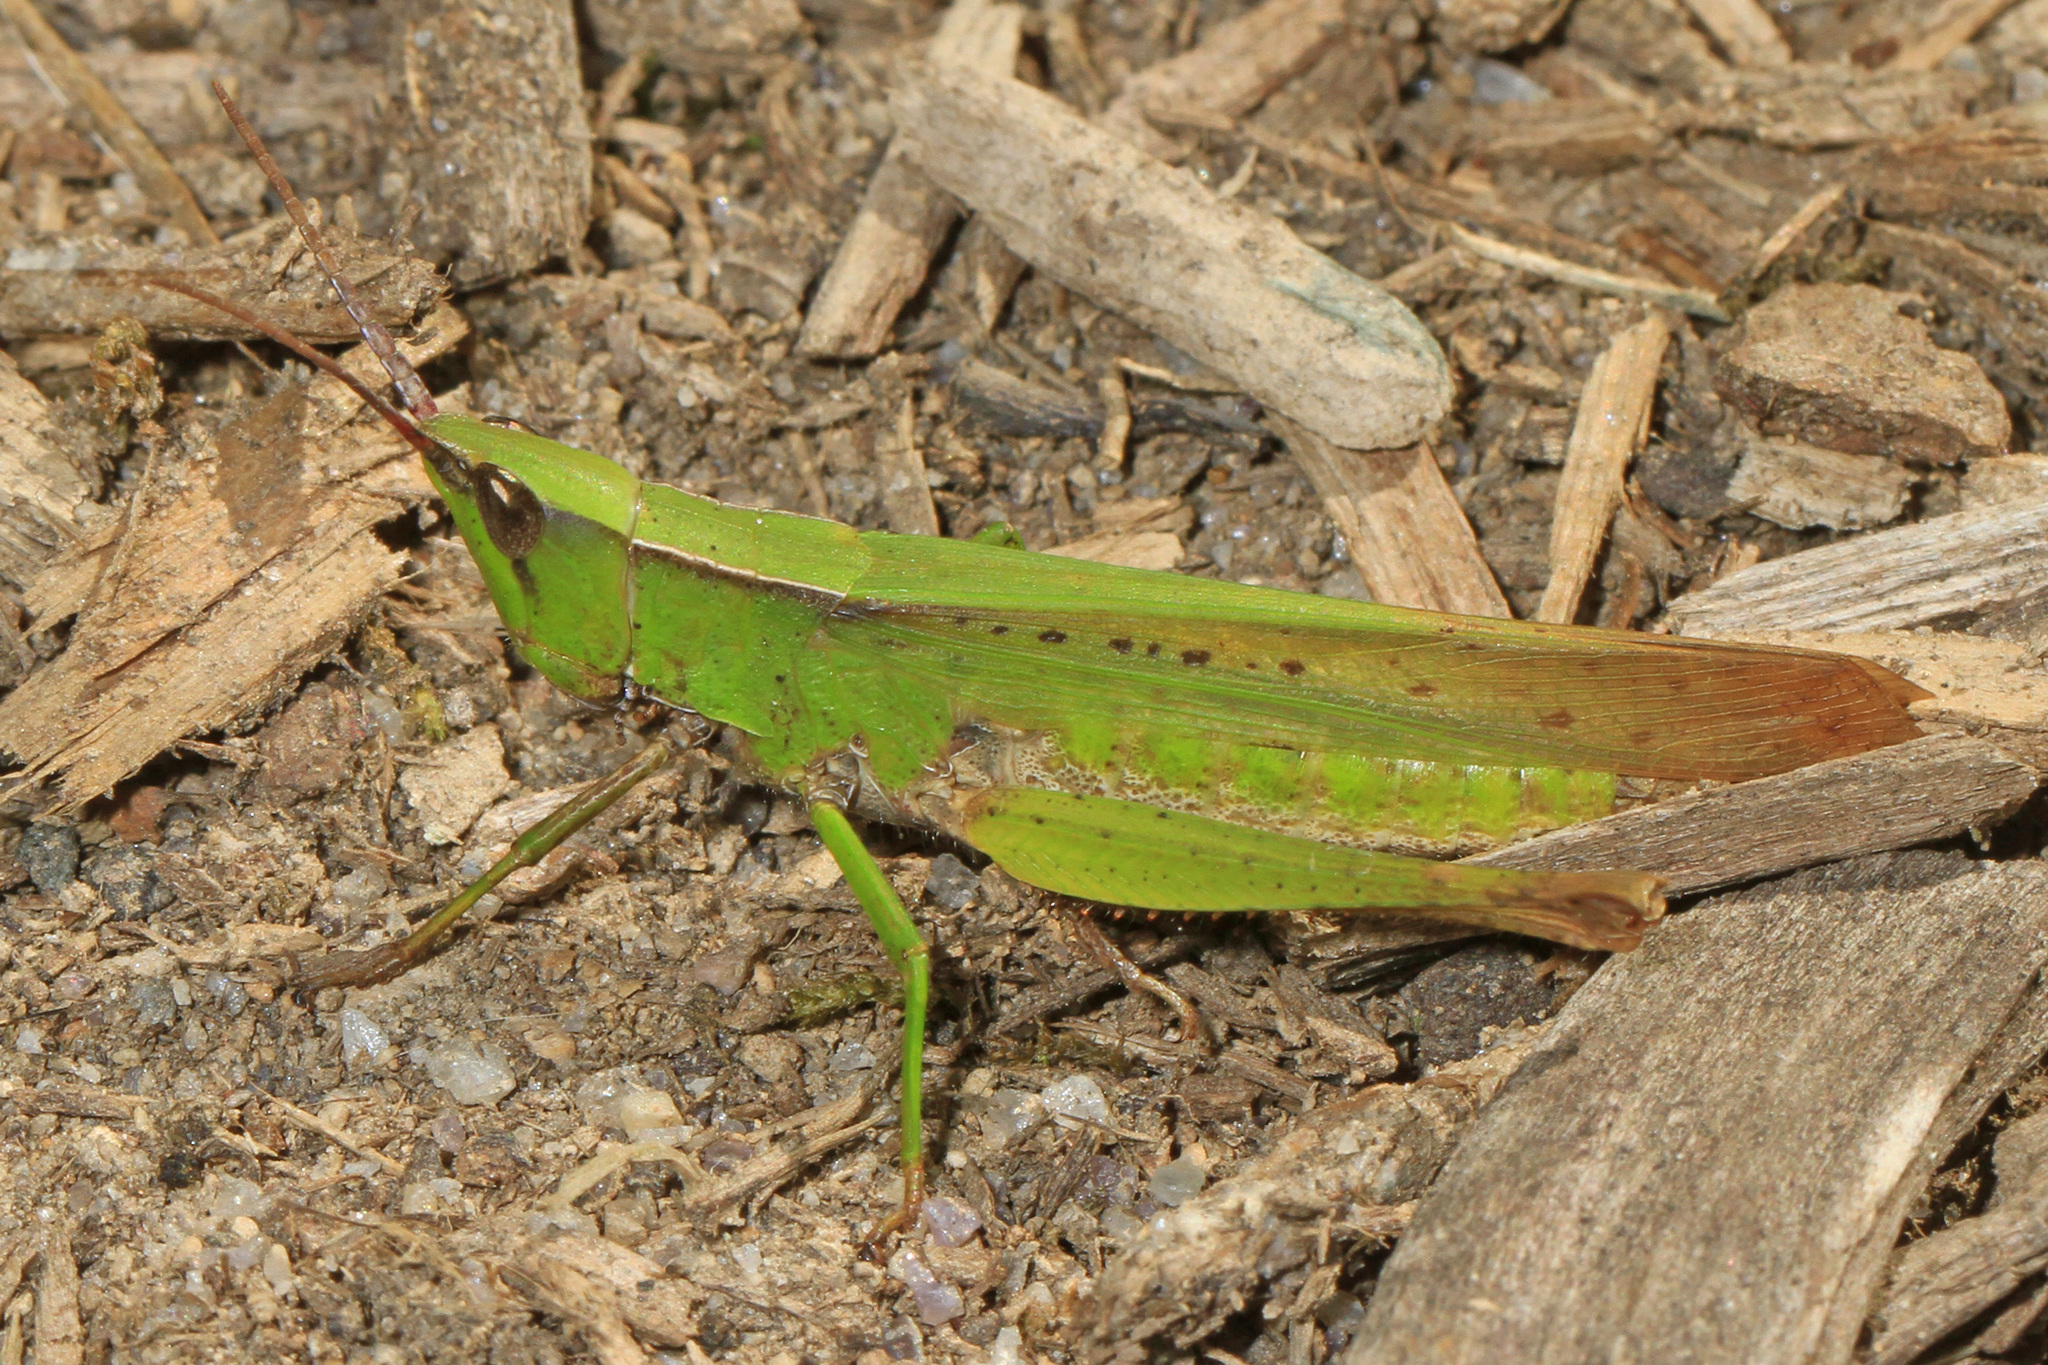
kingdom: Animalia
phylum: Arthropoda
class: Insecta
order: Orthoptera
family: Acrididae
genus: Metaleptea
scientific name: Metaleptea brevicornis
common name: Clipped-wing grasshopper
